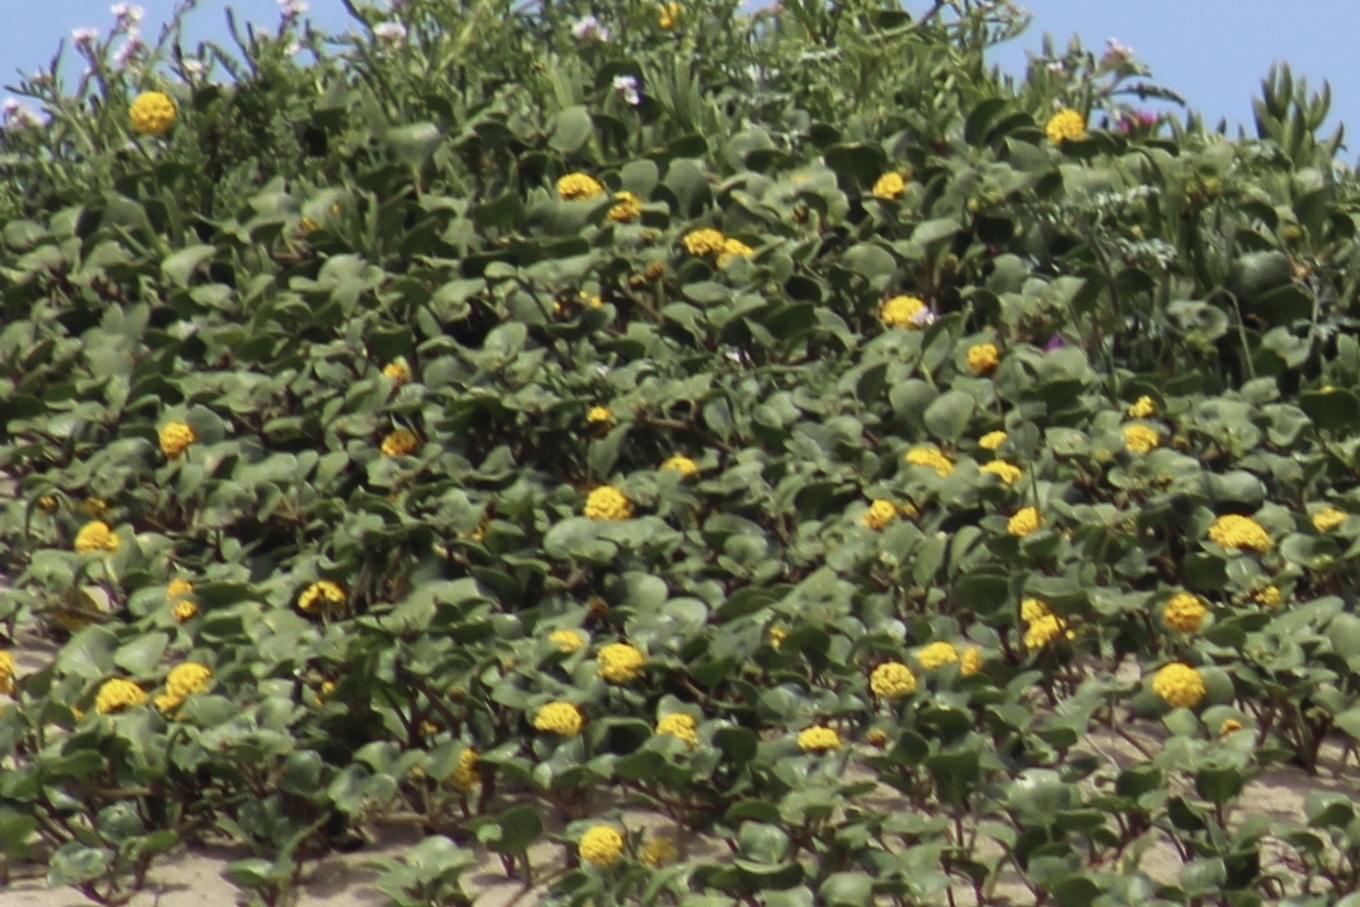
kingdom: Plantae
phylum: Tracheophyta
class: Magnoliopsida
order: Caryophyllales
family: Nyctaginaceae
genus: Abronia
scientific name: Abronia latifolia
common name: Yellow sand-verbena
